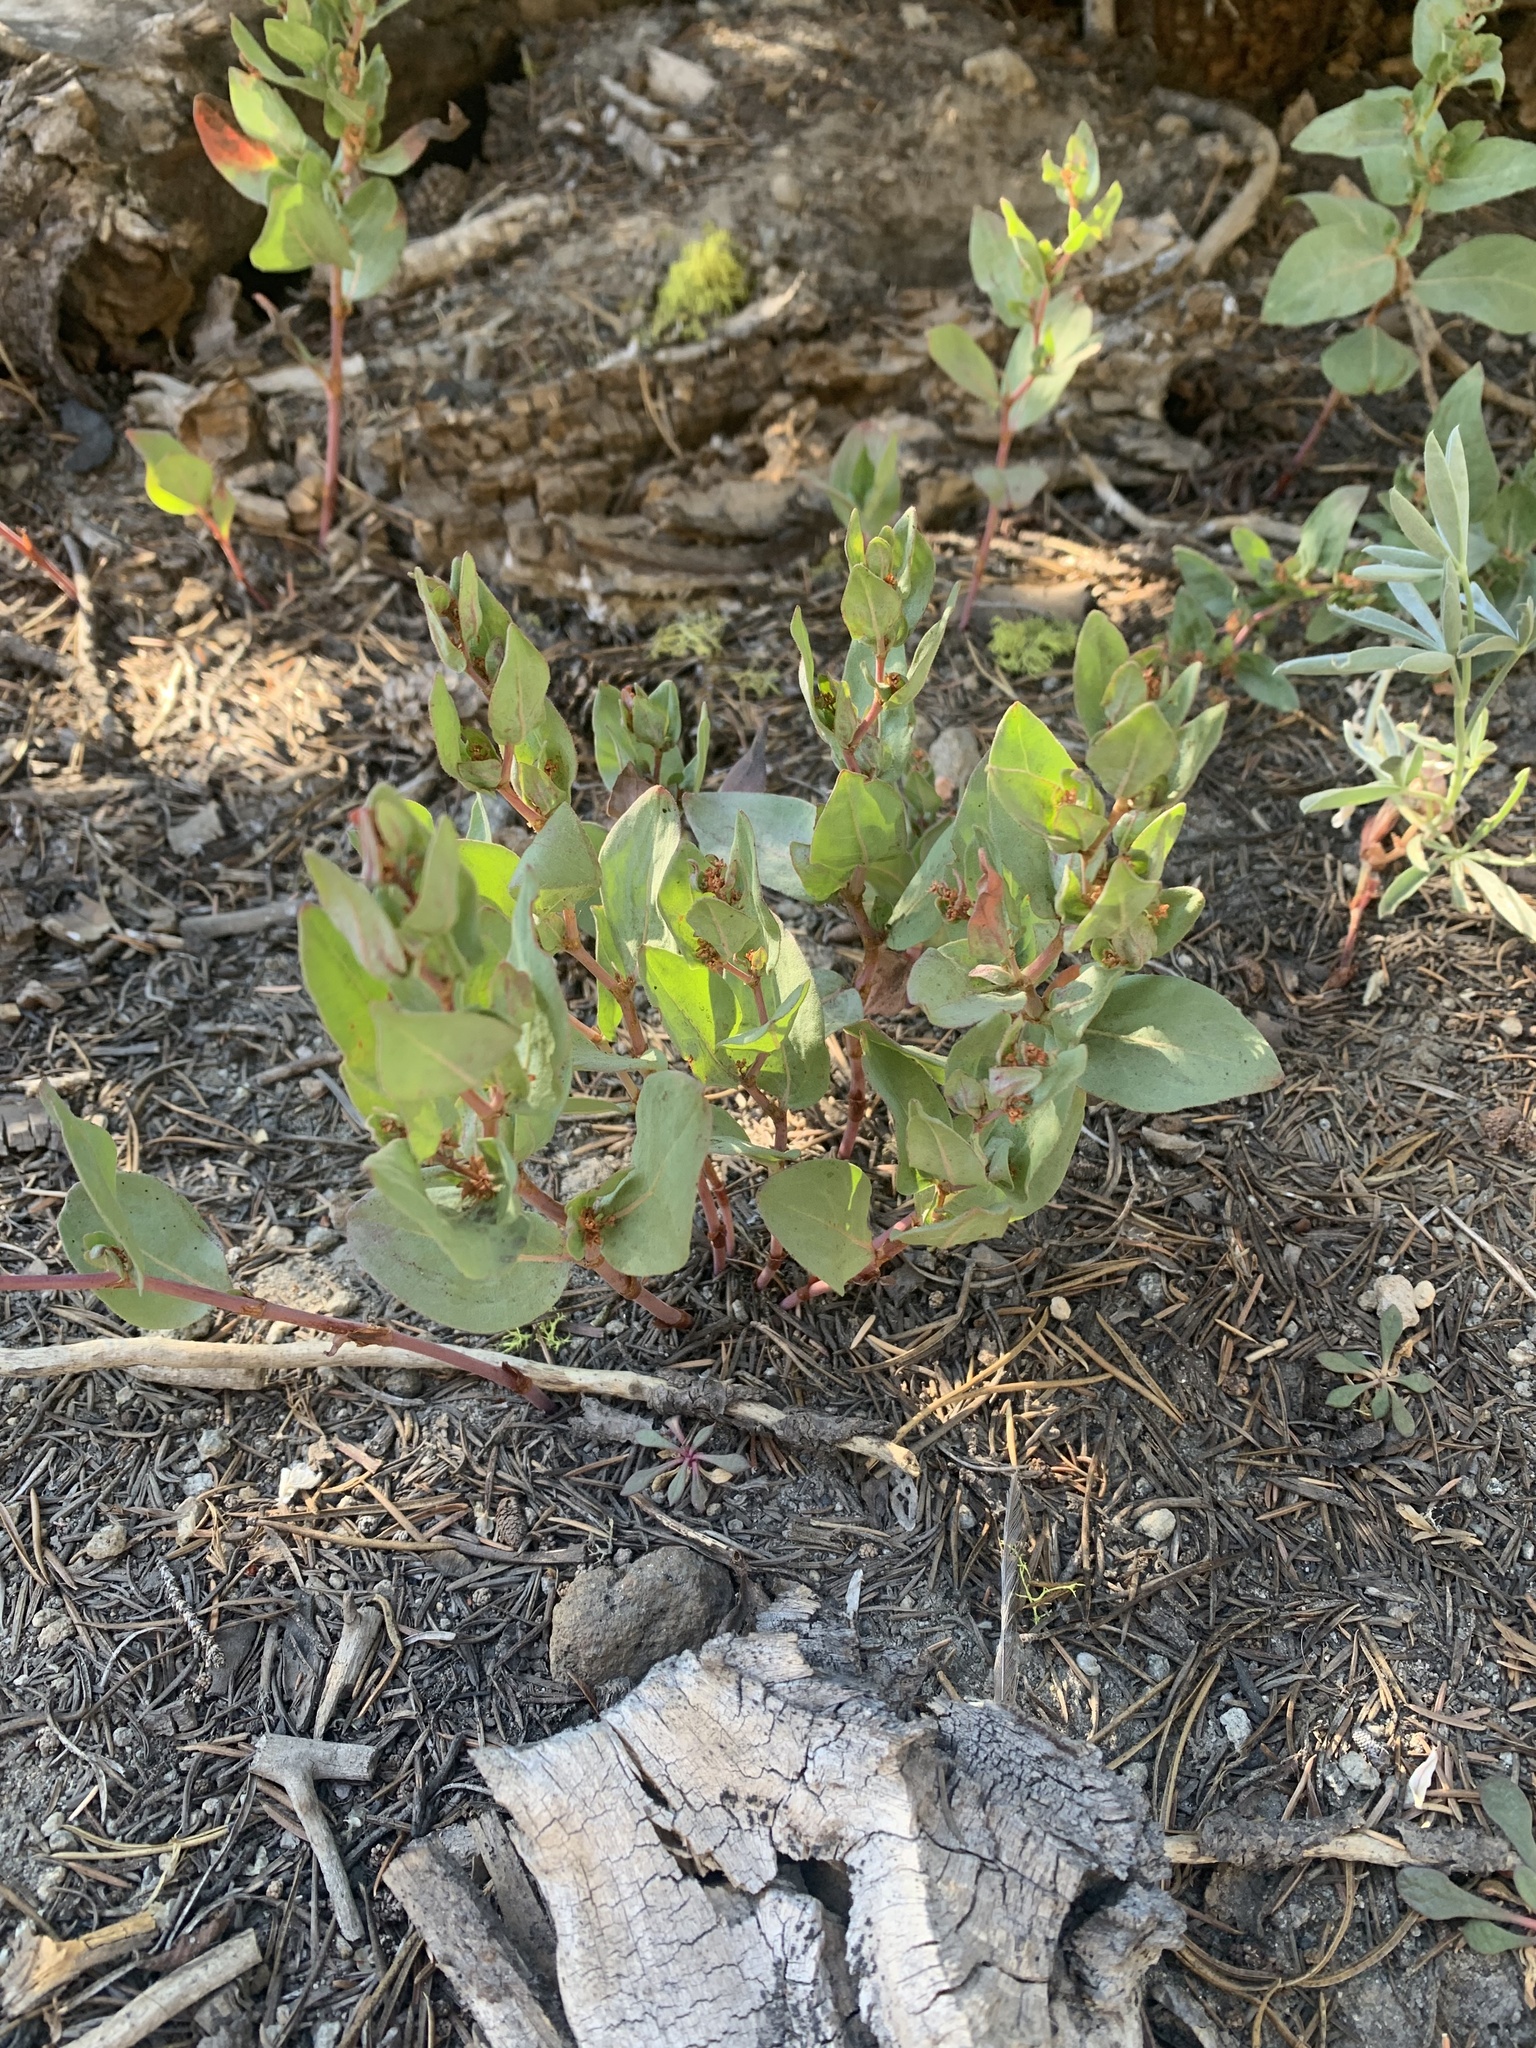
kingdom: Plantae
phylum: Tracheophyta
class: Magnoliopsida
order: Caryophyllales
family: Polygonaceae
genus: Koenigia
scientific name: Koenigia davisiae
